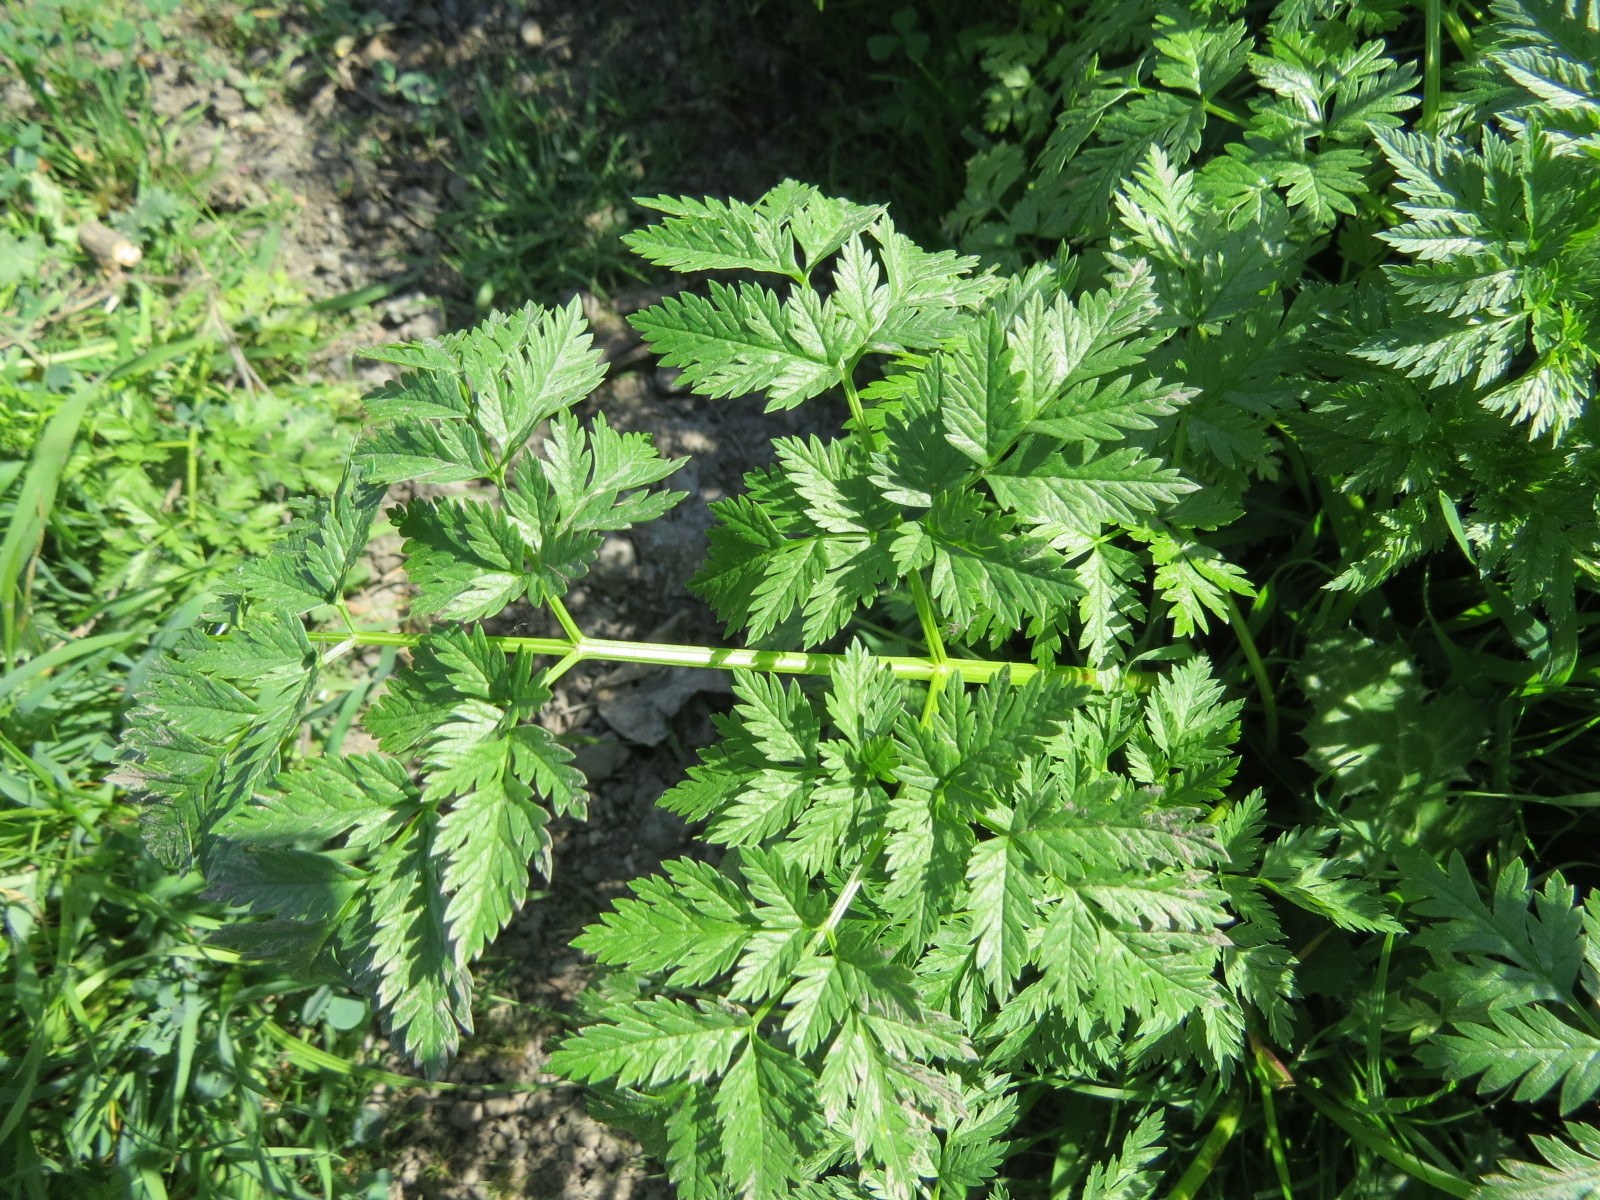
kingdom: Plantae
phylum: Tracheophyta
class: Magnoliopsida
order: Apiales
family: Apiaceae
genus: Conium
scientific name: Conium maculatum
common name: Hemlock
